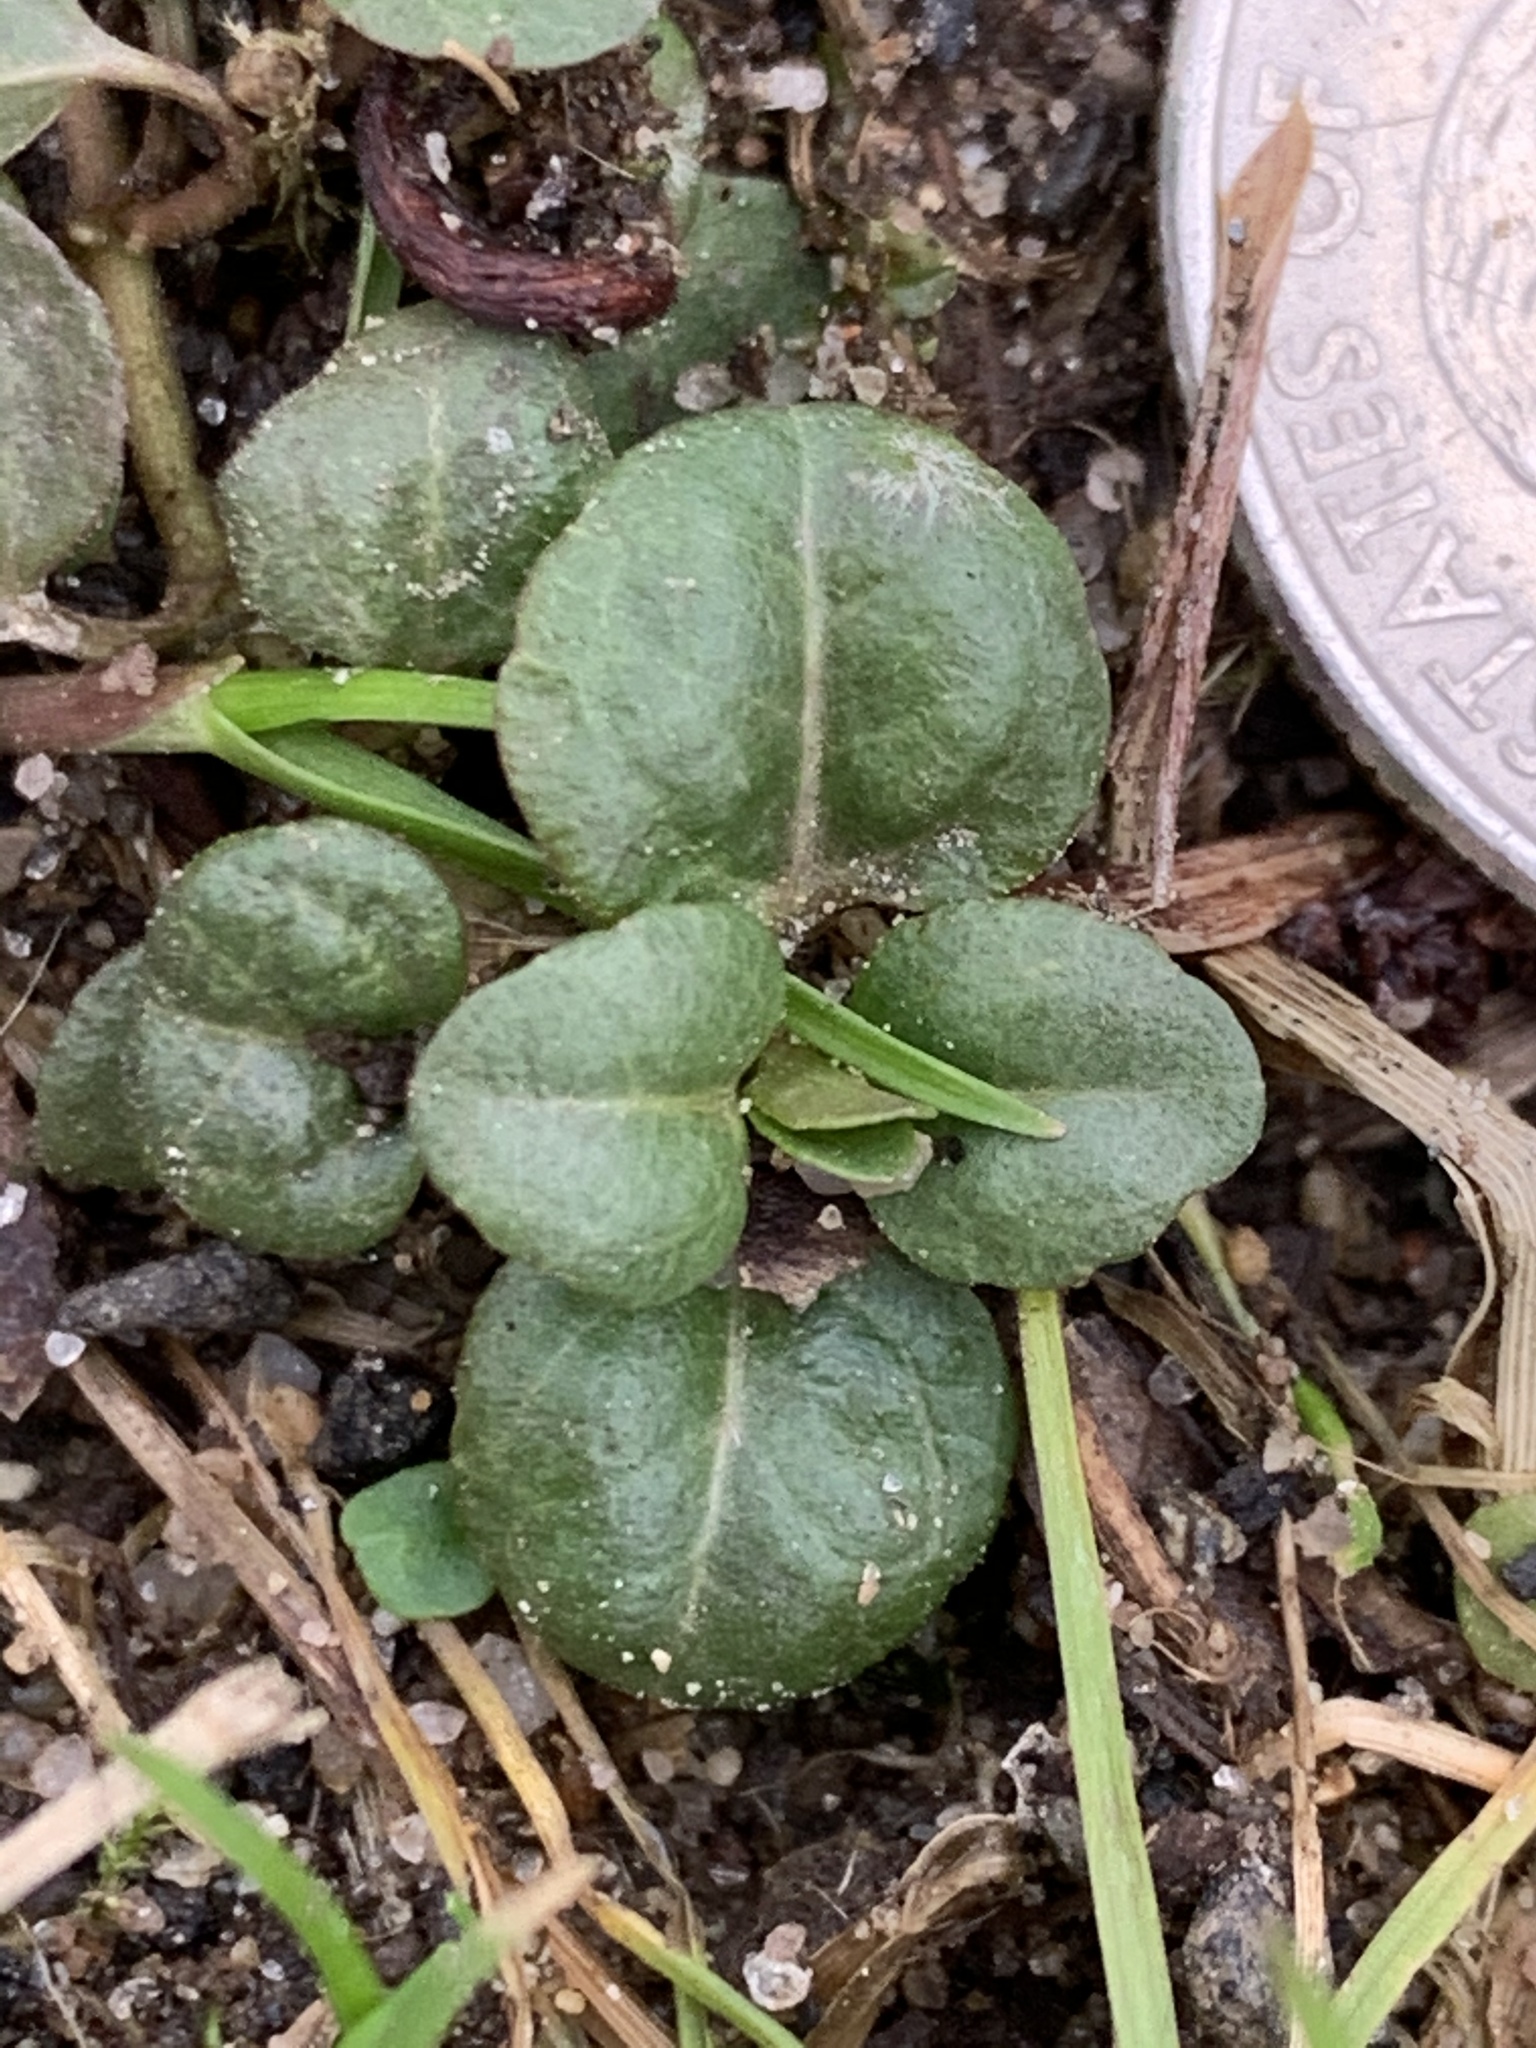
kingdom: Plantae
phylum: Tracheophyta
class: Magnoliopsida
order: Ericales
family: Primulaceae
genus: Lysimachia
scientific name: Lysimachia nummularia
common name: Moneywort
